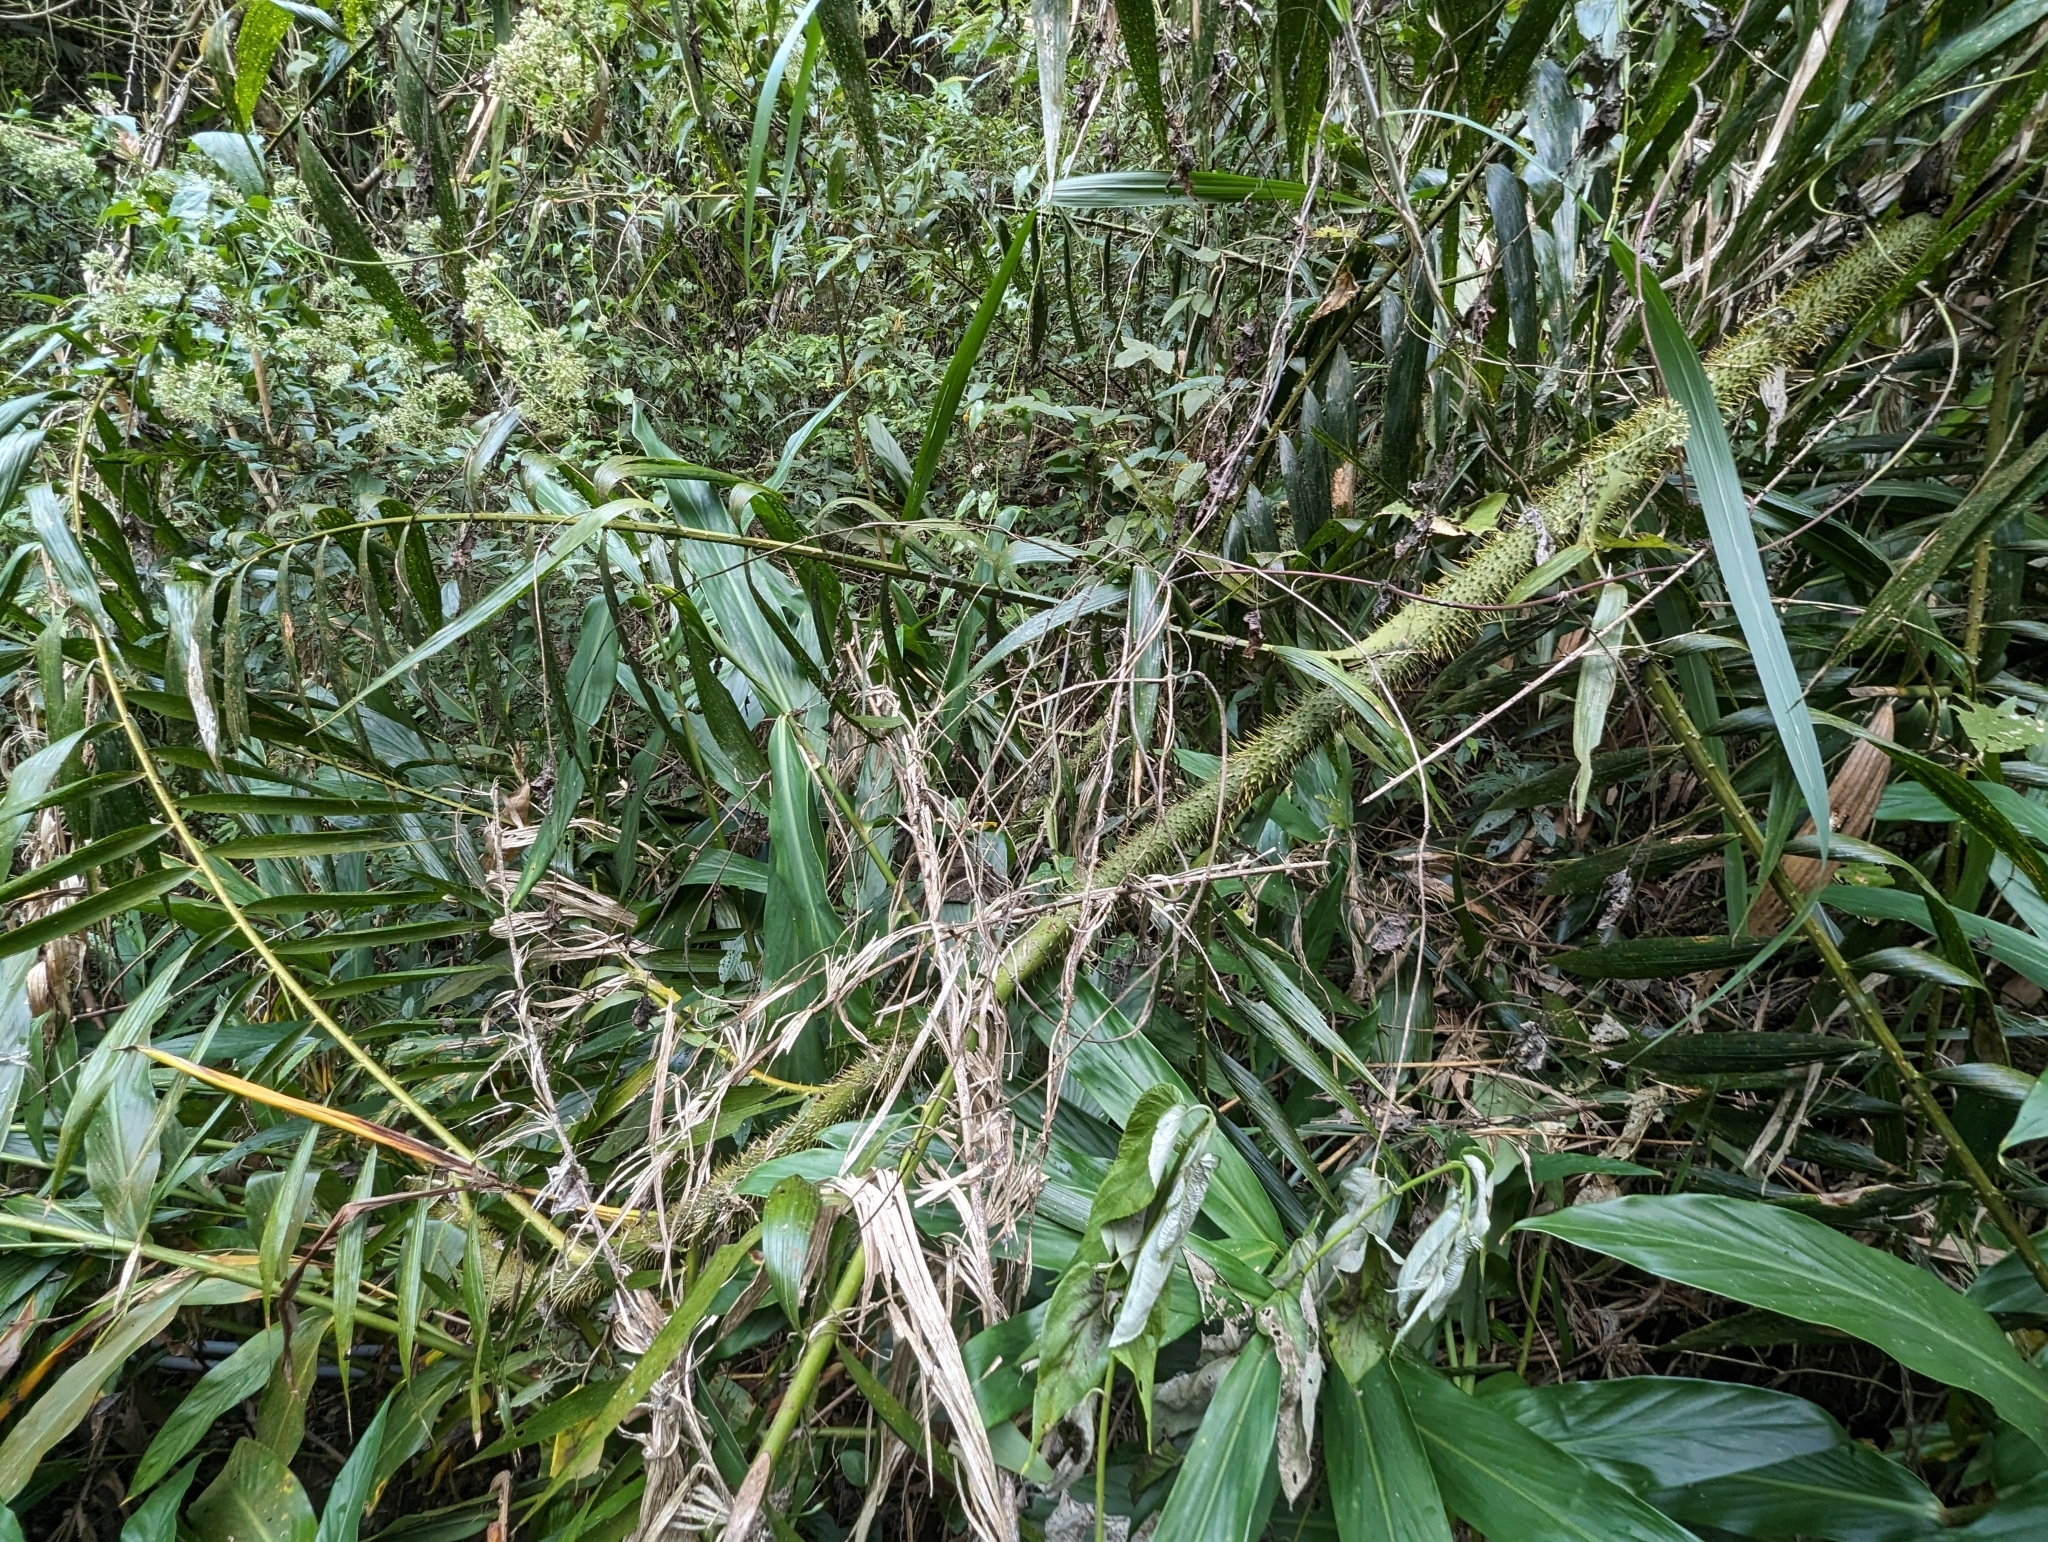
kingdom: Plantae
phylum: Tracheophyta
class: Liliopsida
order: Arecales
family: Arecaceae
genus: Calamus
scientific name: Calamus formosanus
